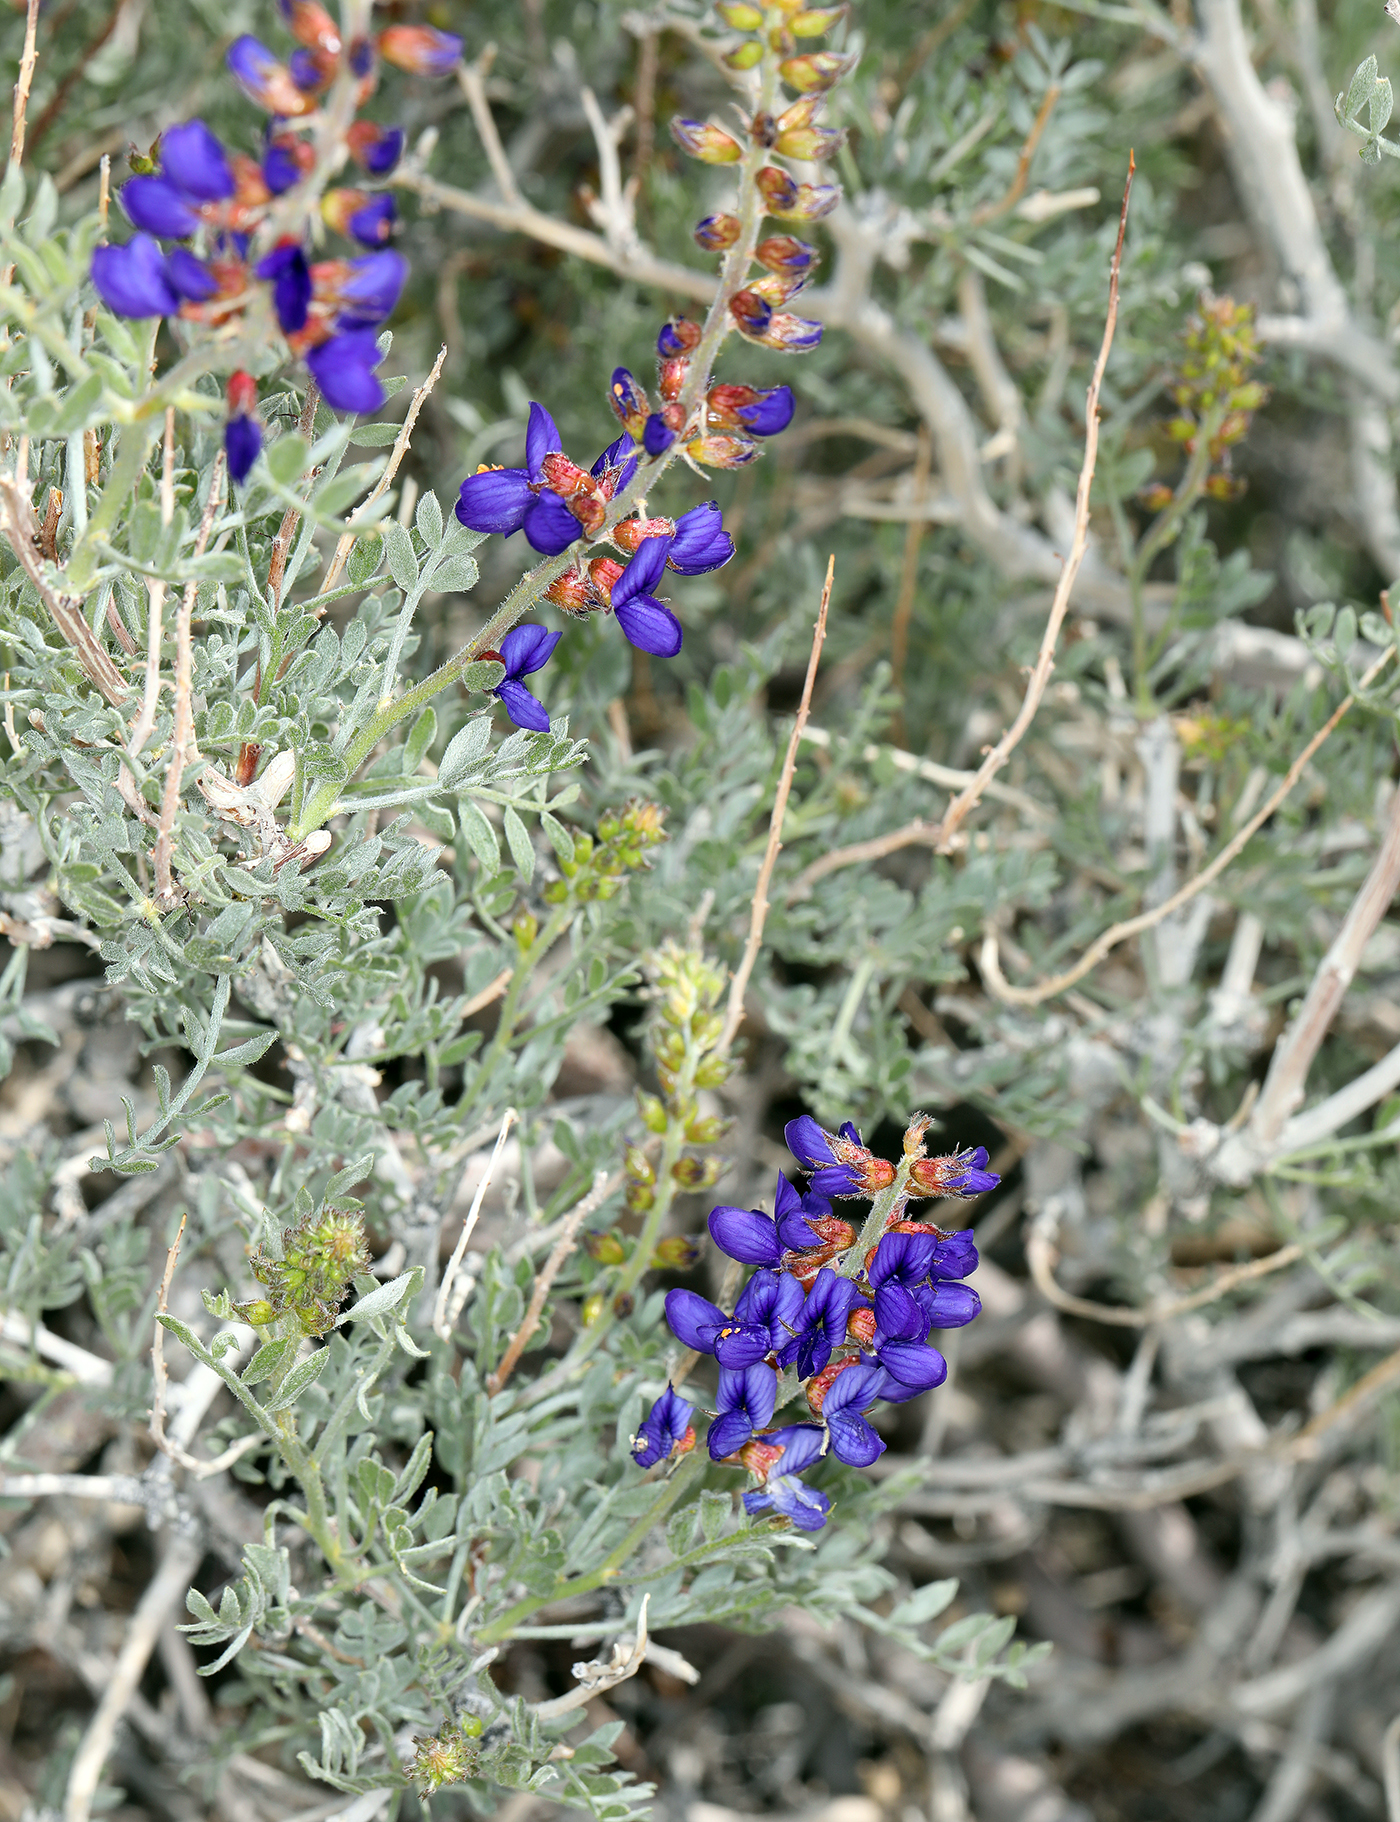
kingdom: Plantae
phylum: Tracheophyta
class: Magnoliopsida
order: Fabales
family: Fabaceae
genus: Psorothamnus
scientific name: Psorothamnus arborescens
